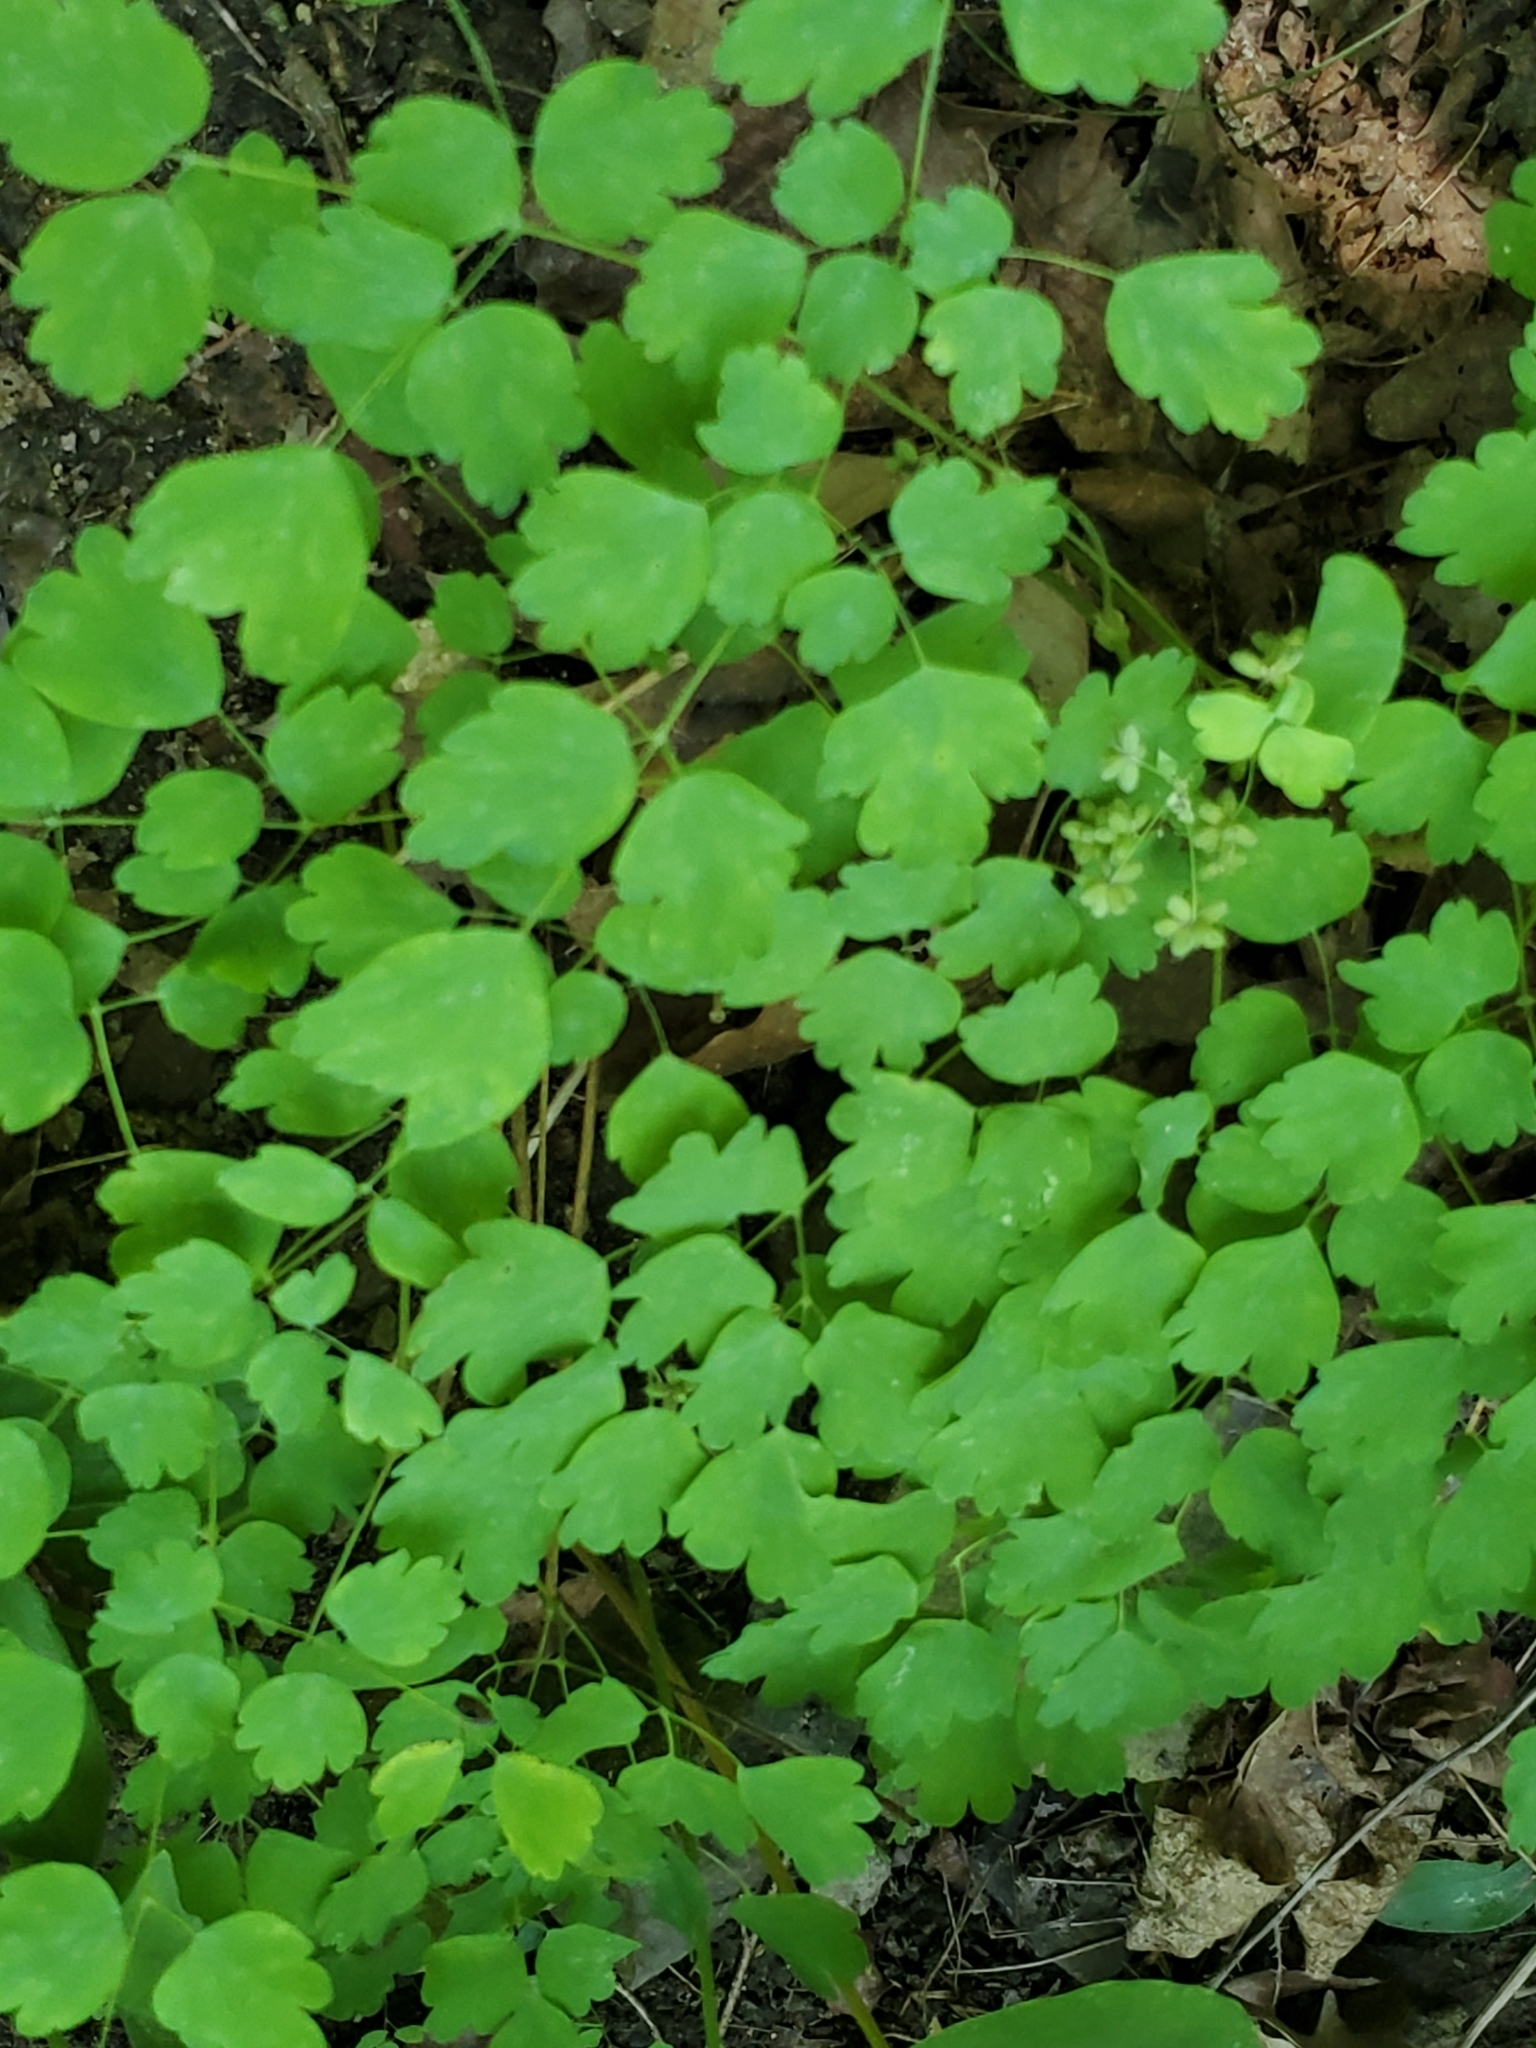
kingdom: Plantae
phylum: Tracheophyta
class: Magnoliopsida
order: Ranunculales
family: Ranunculaceae
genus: Thalictrum
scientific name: Thalictrum dioicum
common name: Early meadow-rue
